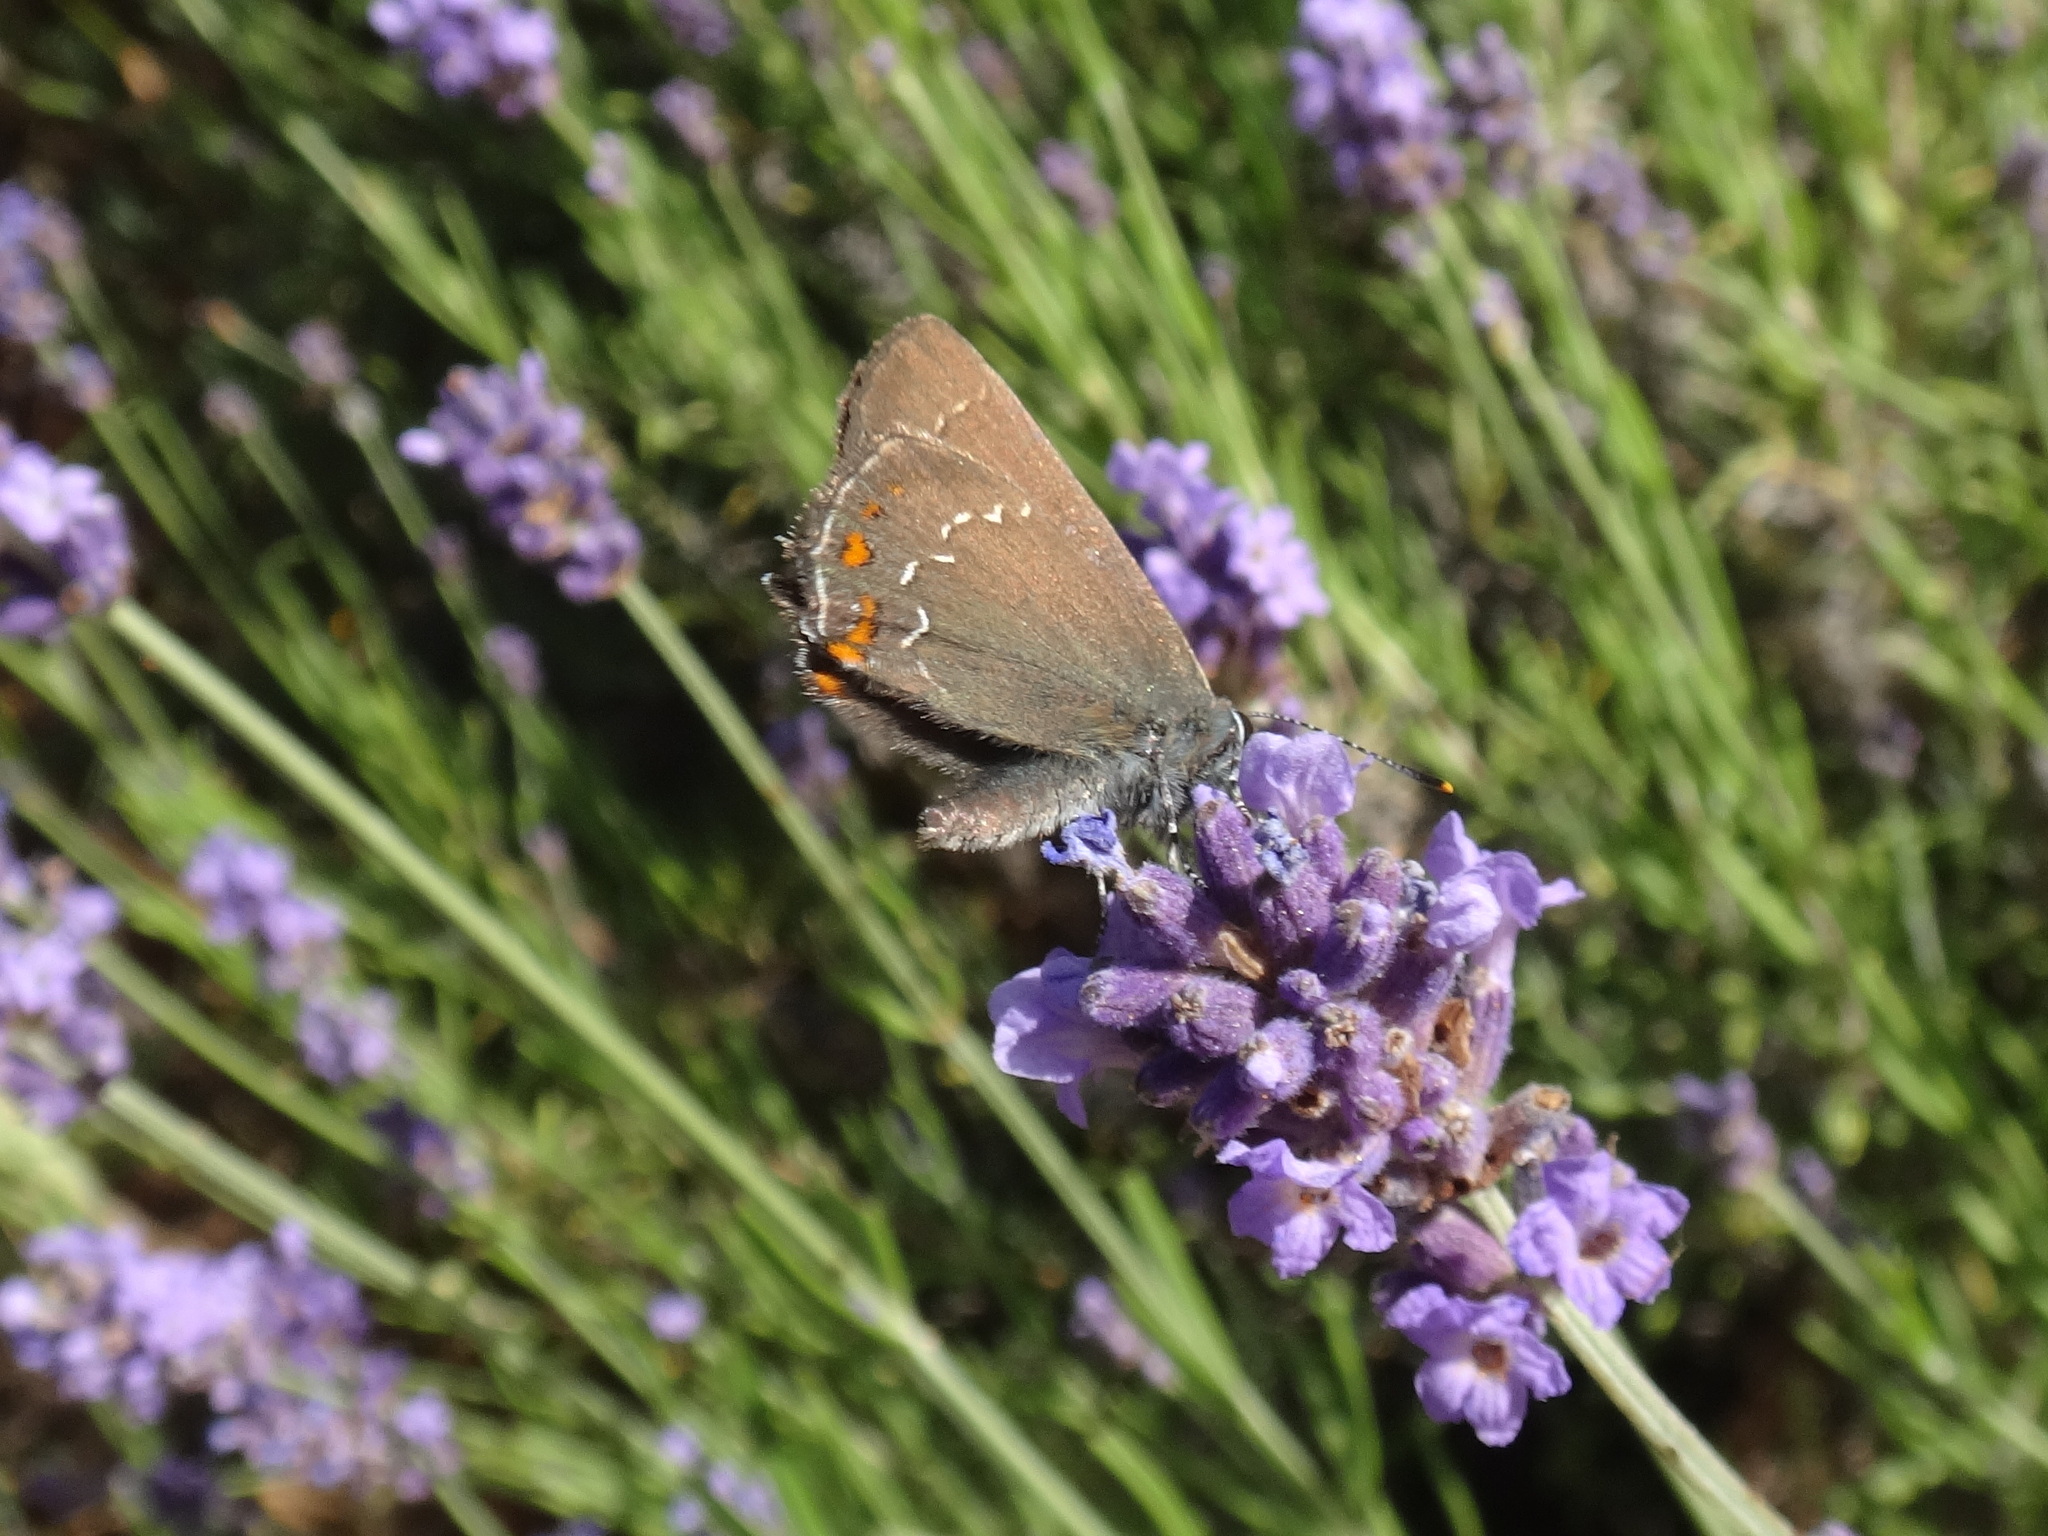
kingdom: Animalia
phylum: Arthropoda
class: Insecta
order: Lepidoptera
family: Lycaenidae
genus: Nordmannia
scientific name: Nordmannia ilicis
